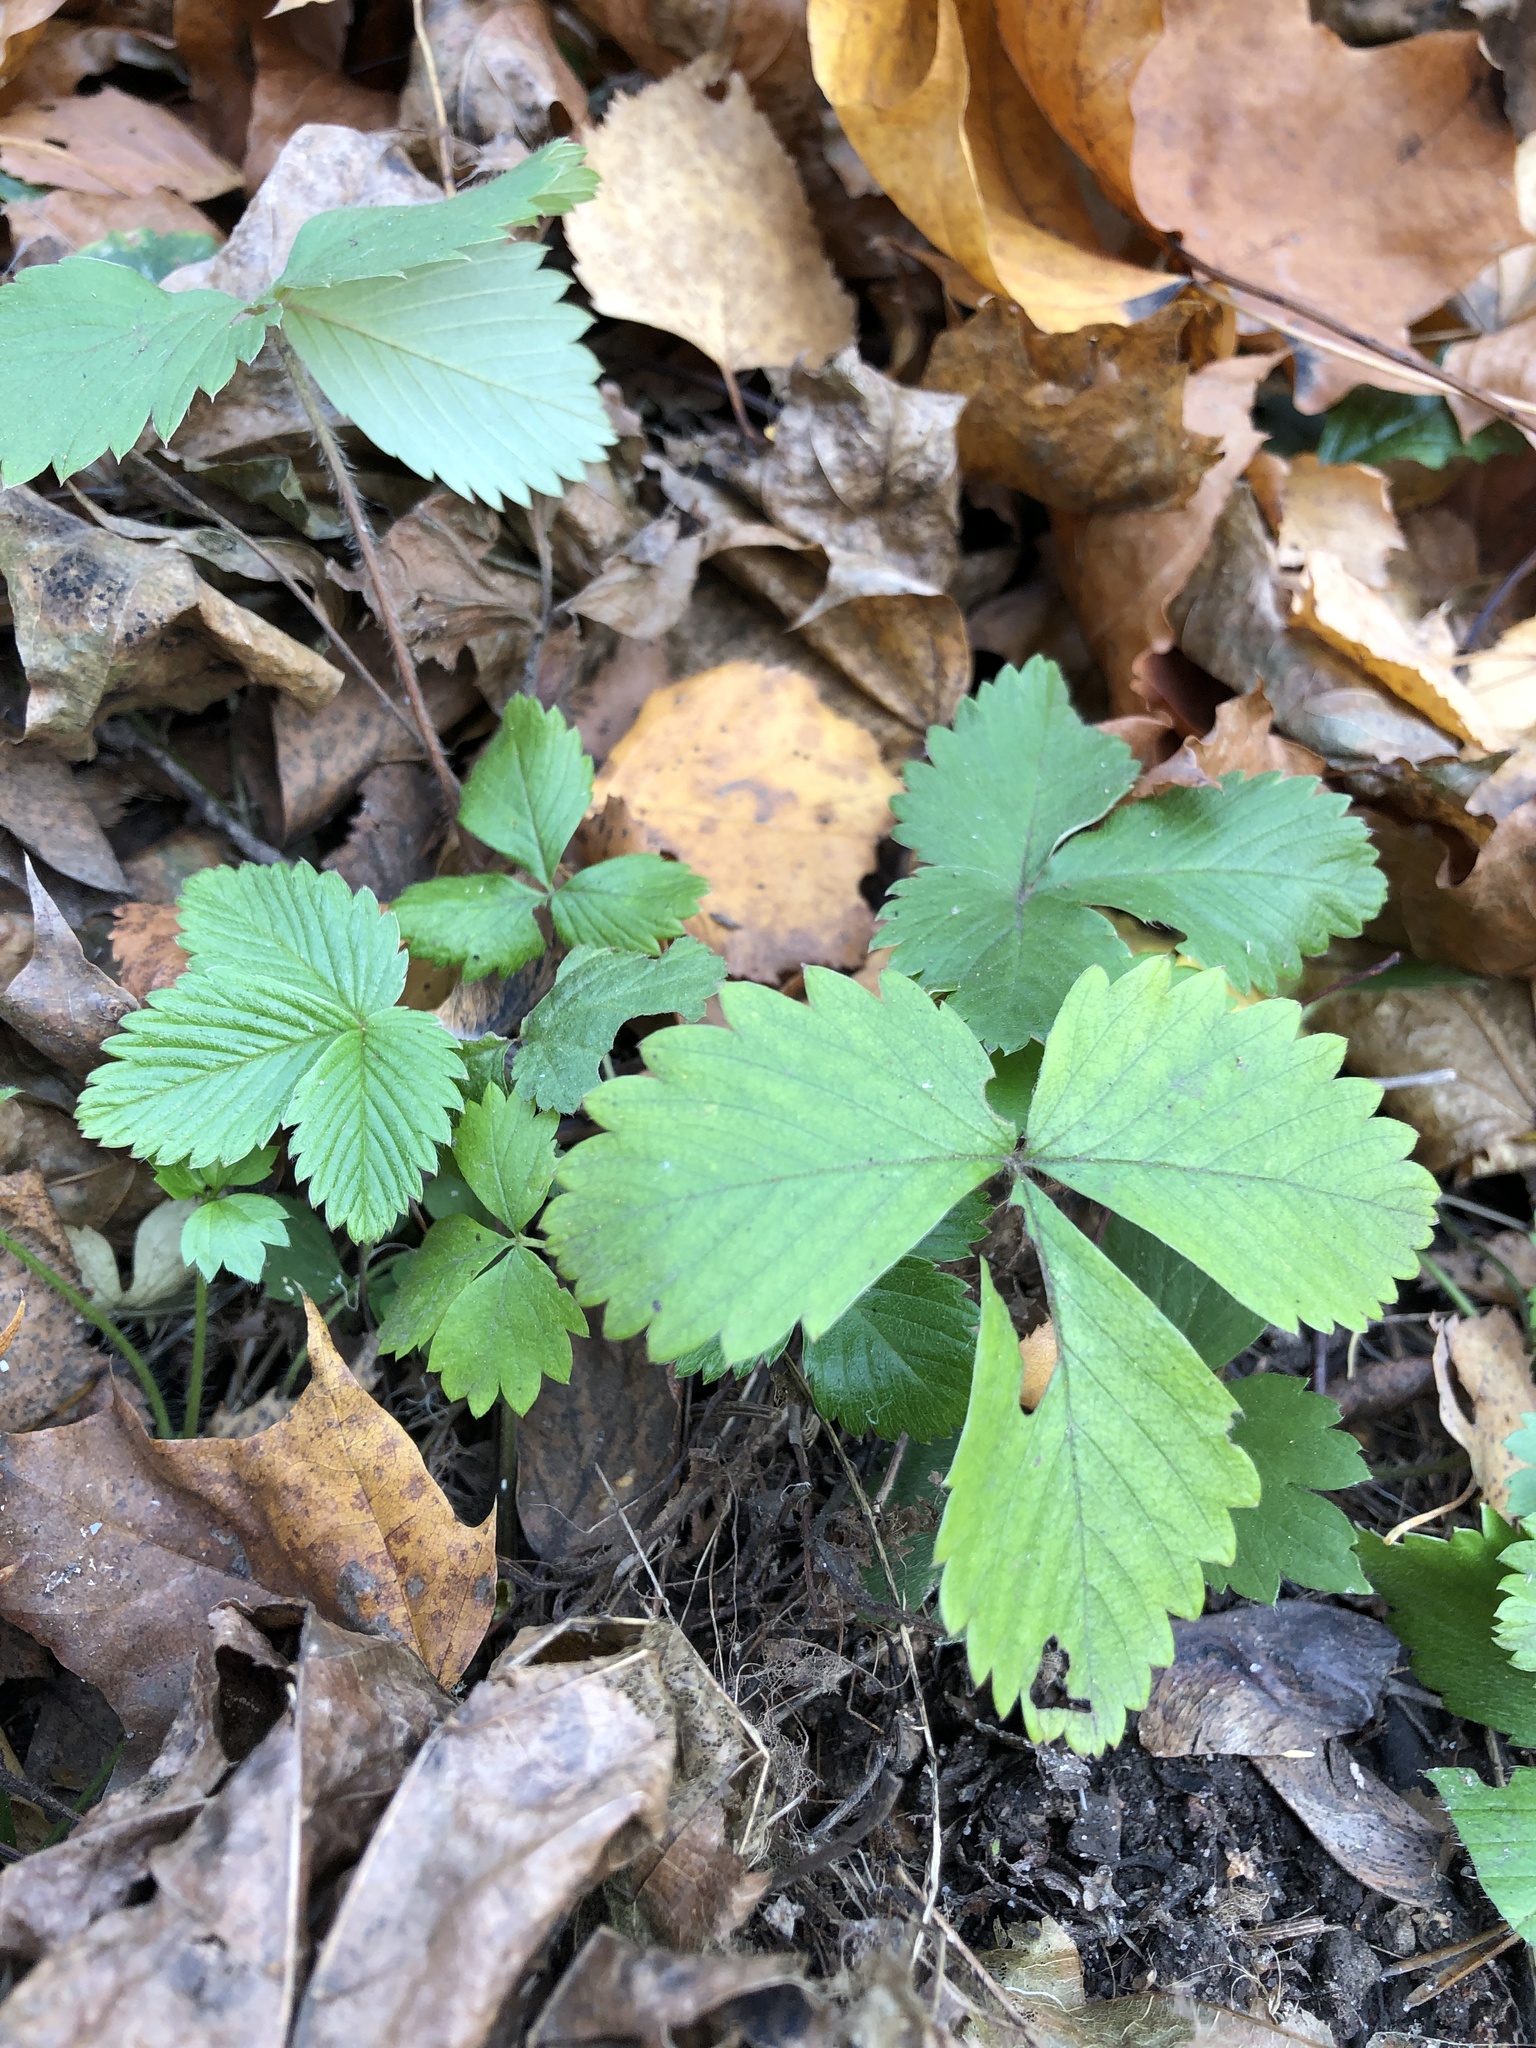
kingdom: Plantae
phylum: Tracheophyta
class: Magnoliopsida
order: Rosales
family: Rosaceae
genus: Fragaria
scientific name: Fragaria vesca
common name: Wild strawberry
